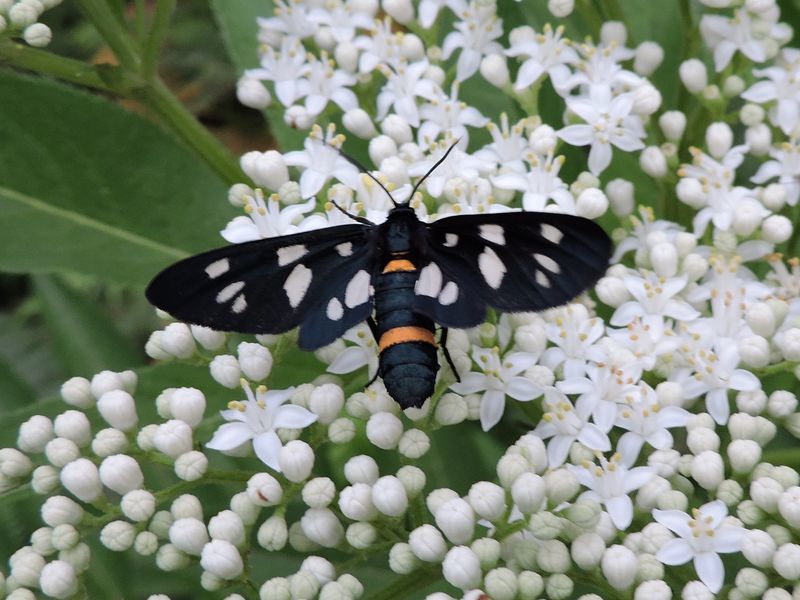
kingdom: Animalia
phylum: Arthropoda
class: Insecta
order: Lepidoptera
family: Erebidae
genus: Amata
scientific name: Amata nigricornis
